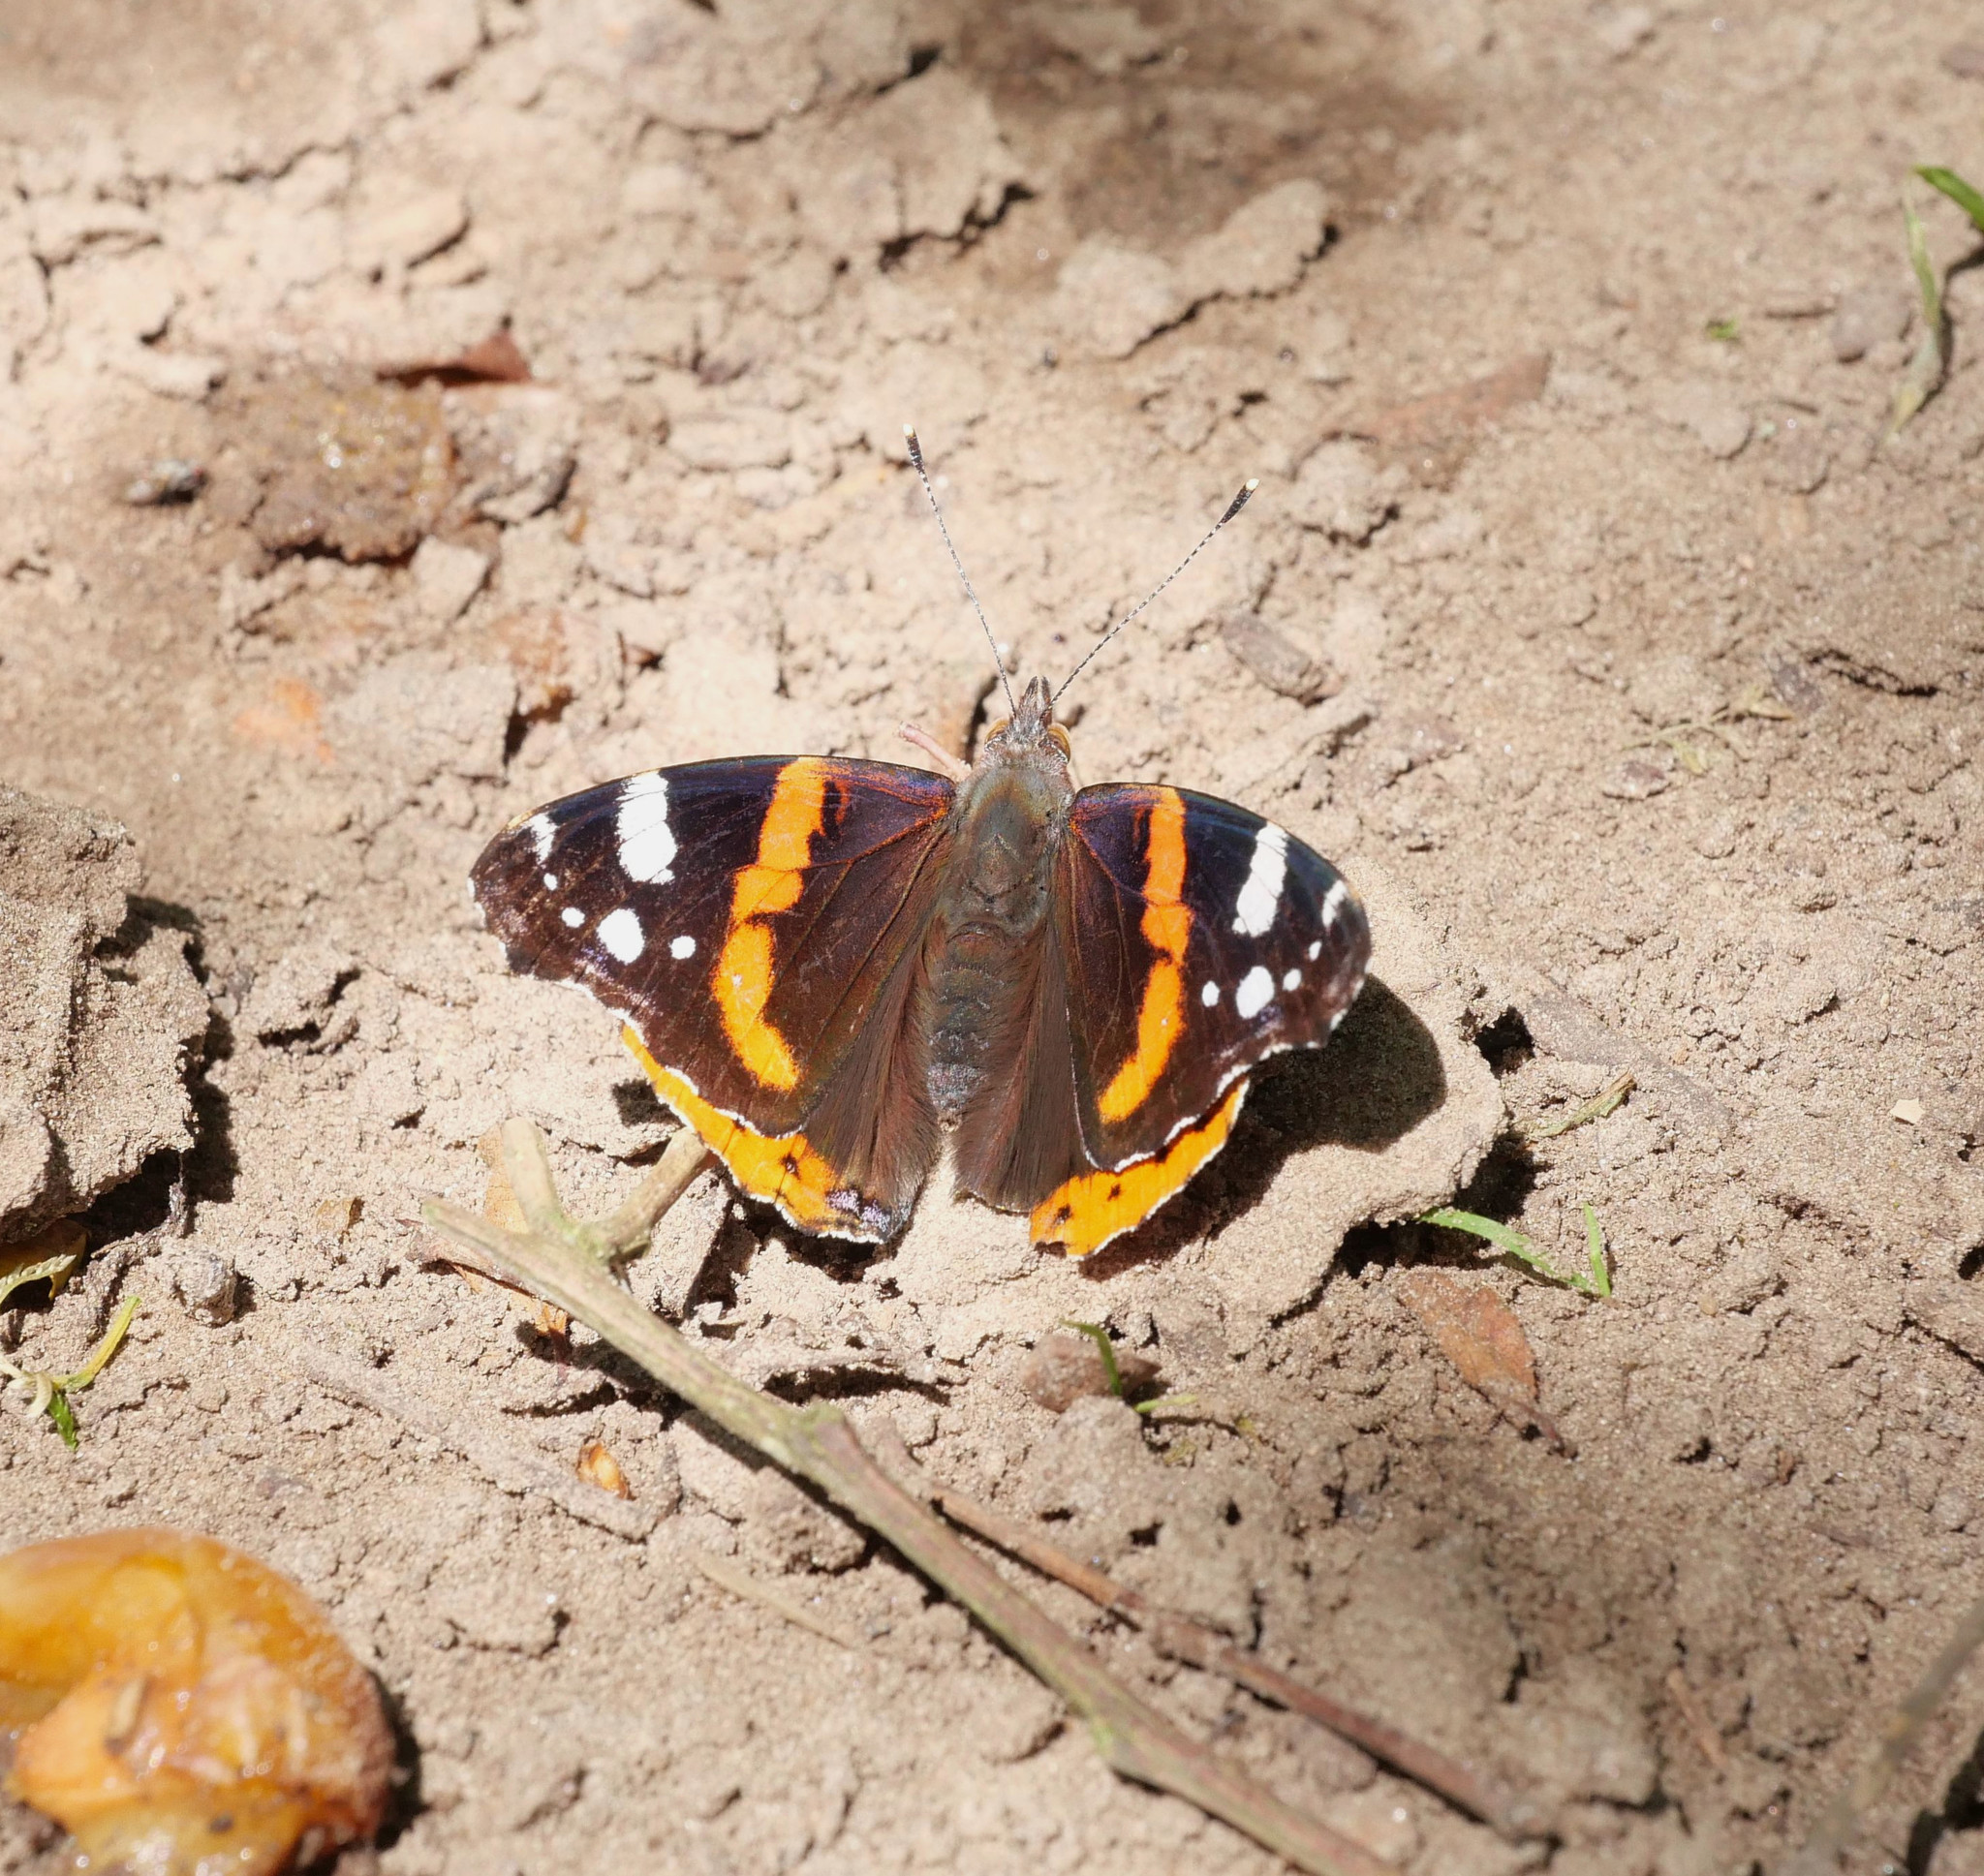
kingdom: Animalia
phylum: Arthropoda
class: Insecta
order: Lepidoptera
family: Nymphalidae
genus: Vanessa
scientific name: Vanessa atalanta
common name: Red admiral
